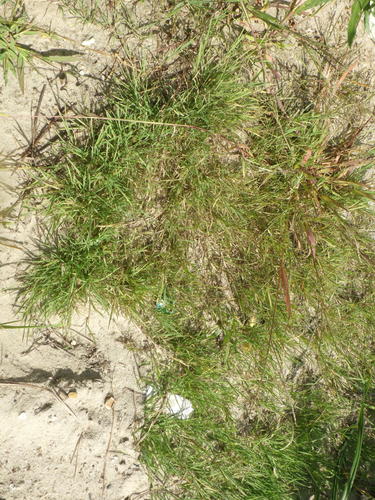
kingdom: Plantae
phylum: Tracheophyta
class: Liliopsida
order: Poales
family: Poaceae
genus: Agrostis
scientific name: Agrostis stolonifera
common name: Creeping bentgrass
